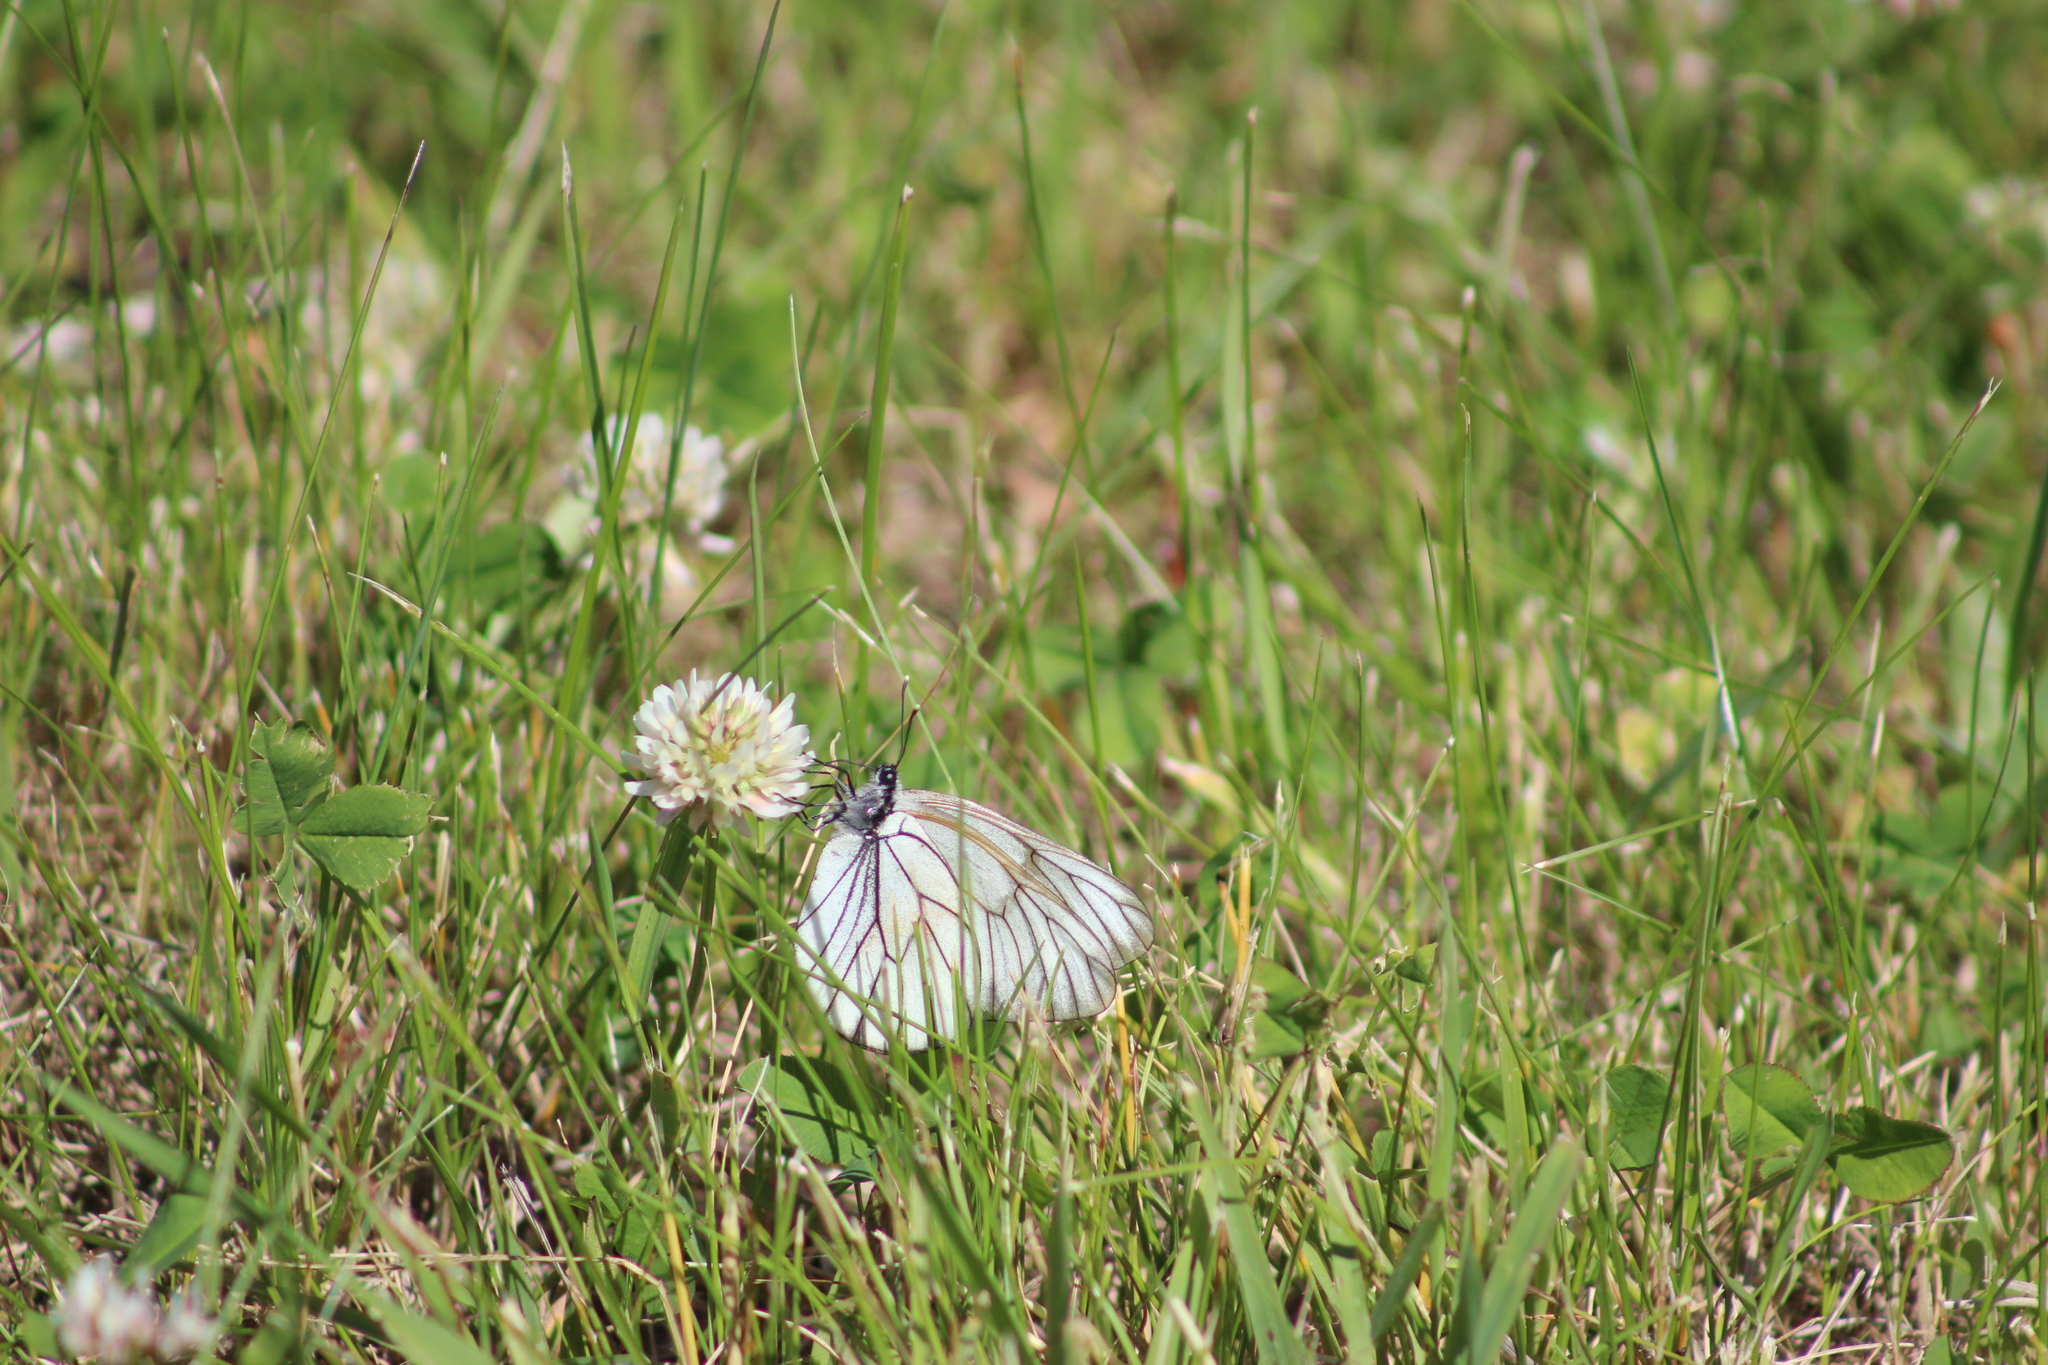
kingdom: Animalia
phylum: Arthropoda
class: Insecta
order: Lepidoptera
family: Pieridae
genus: Aporia
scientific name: Aporia crataegi
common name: Black-veined white
